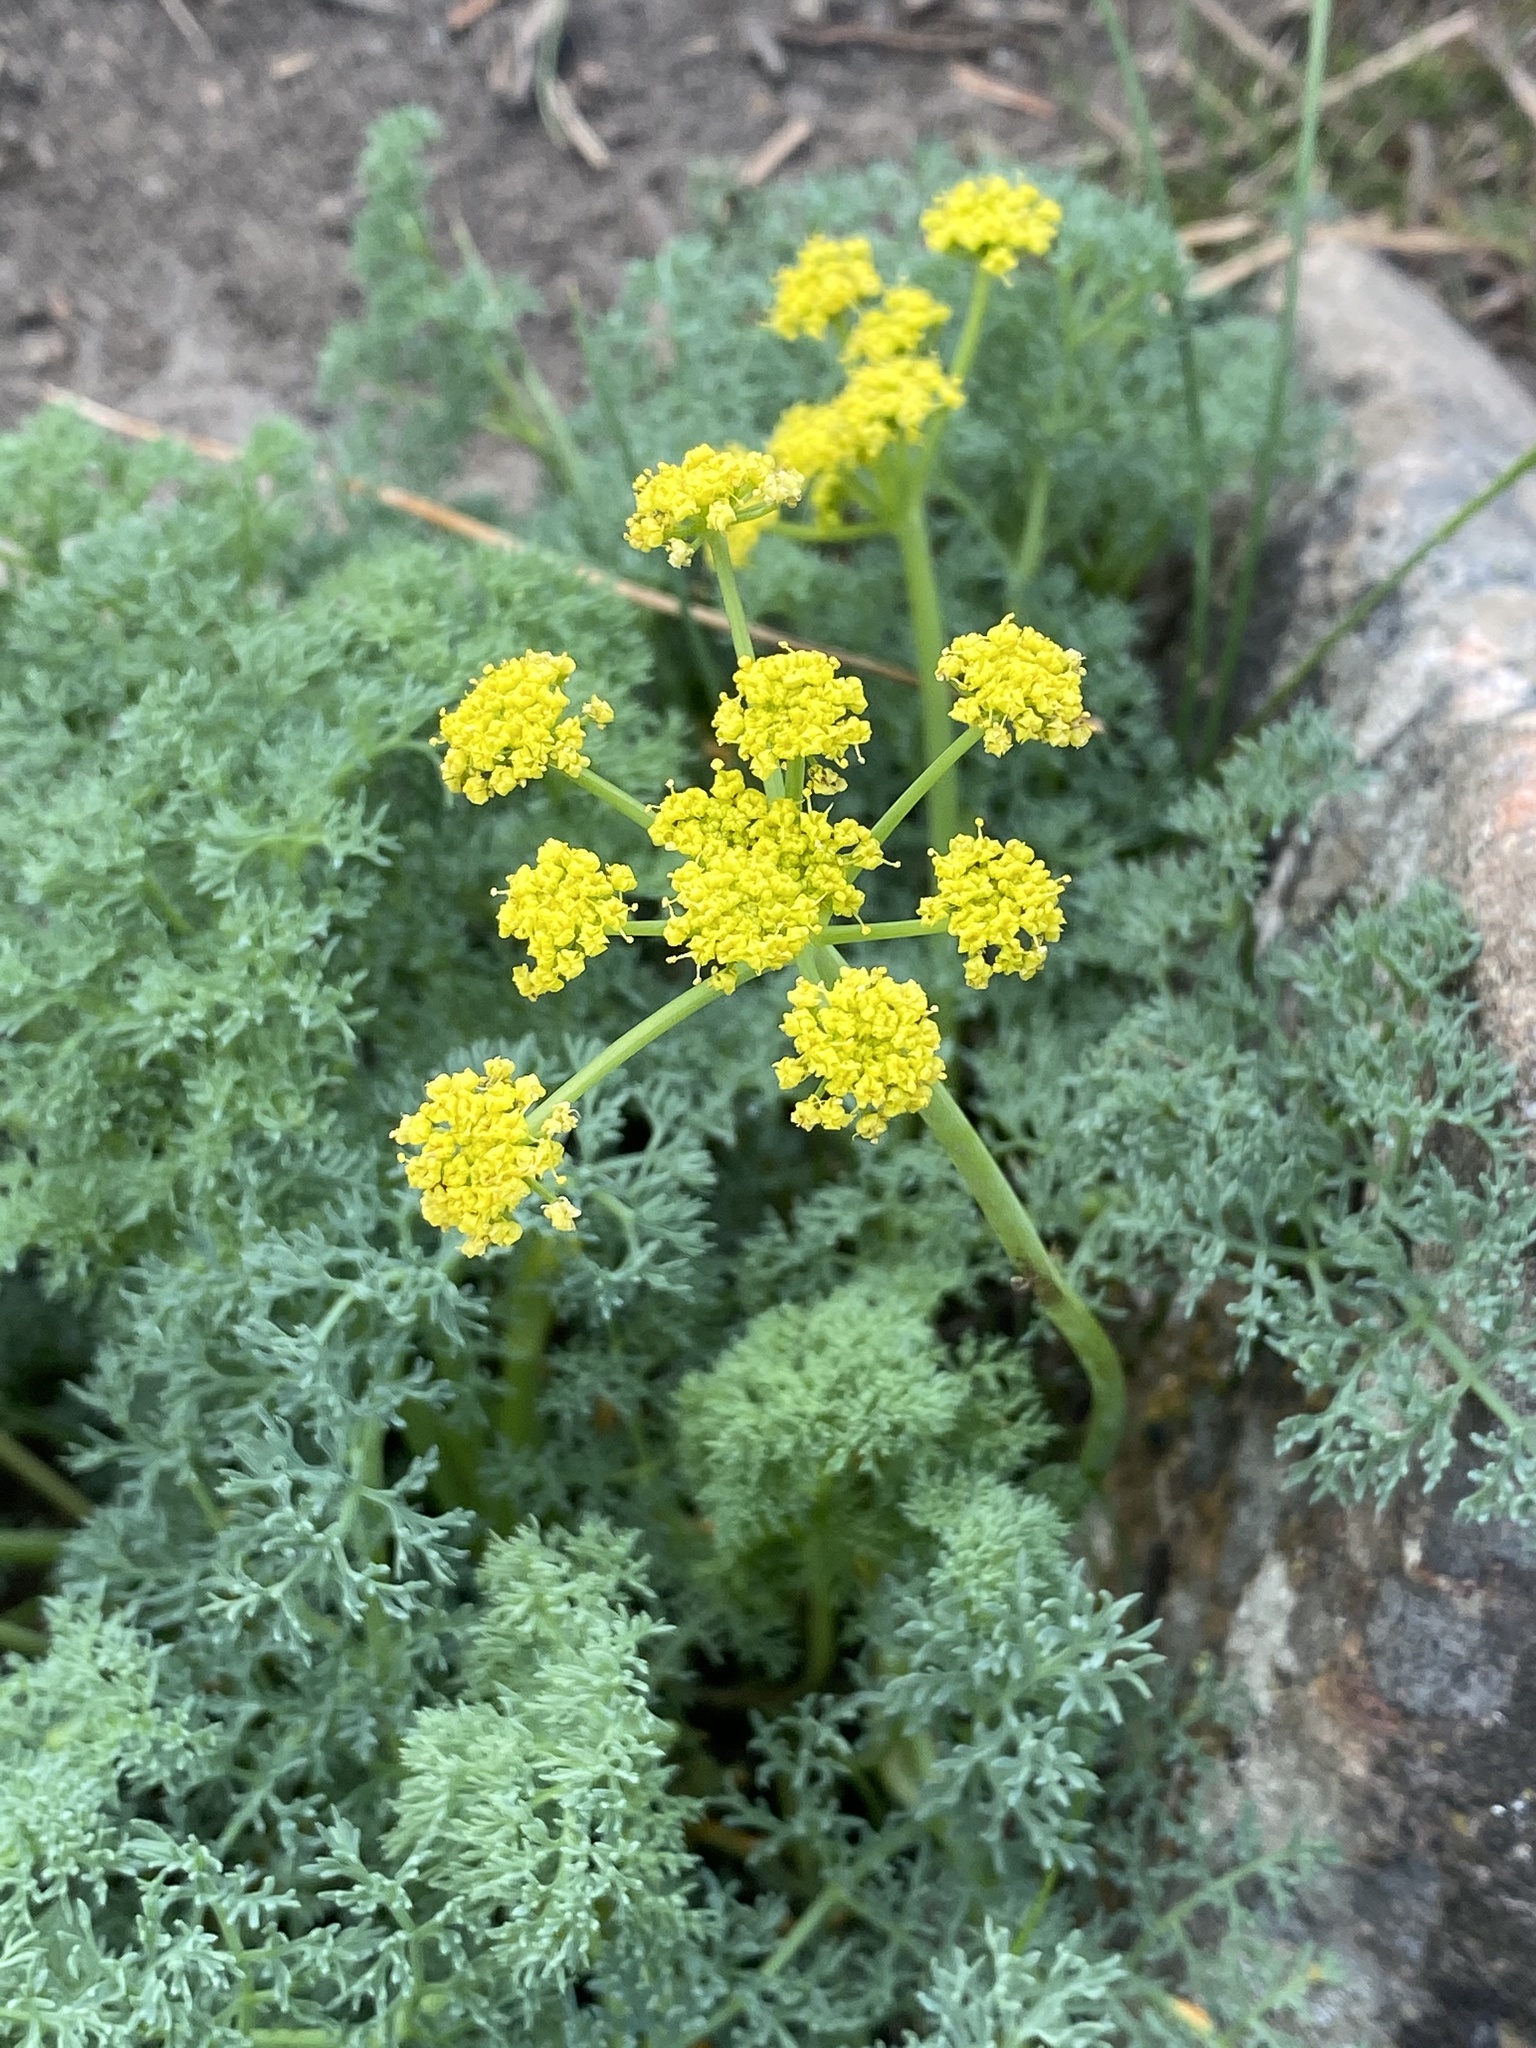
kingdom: Plantae
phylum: Tracheophyta
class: Magnoliopsida
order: Apiales
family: Apiaceae
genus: Lomatium
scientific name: Lomatium papilioniferum
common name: Butterfly lomatium
